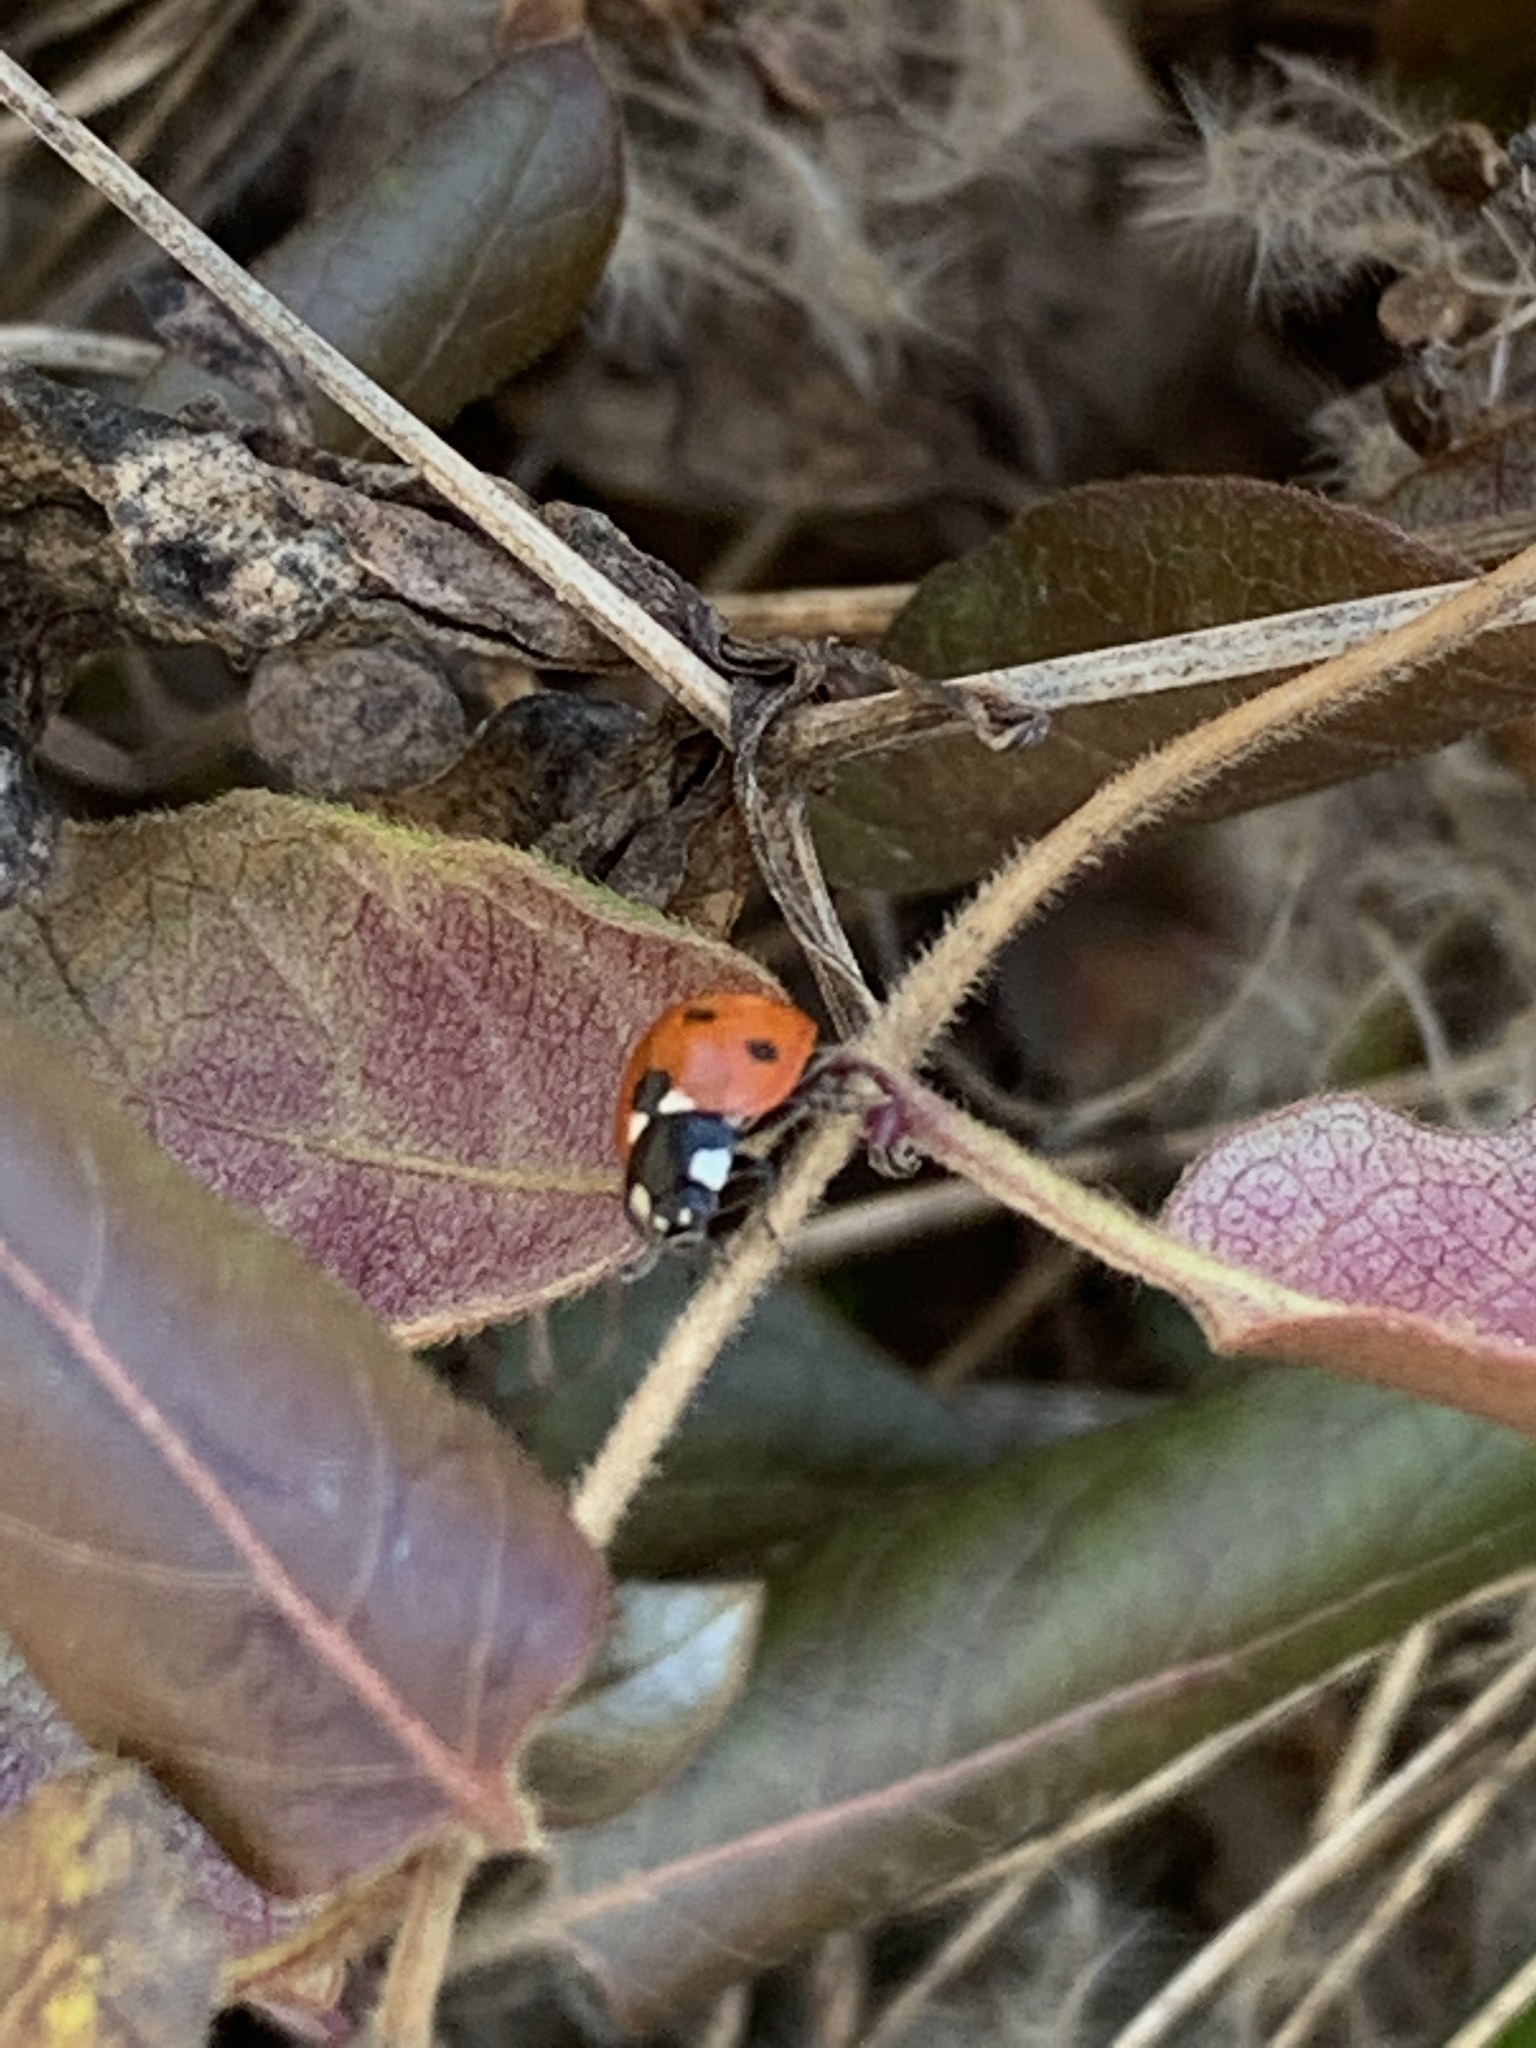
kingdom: Animalia
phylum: Arthropoda
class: Insecta
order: Coleoptera
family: Coccinellidae
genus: Coccinella
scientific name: Coccinella septempunctata
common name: Sevenspotted lady beetle
